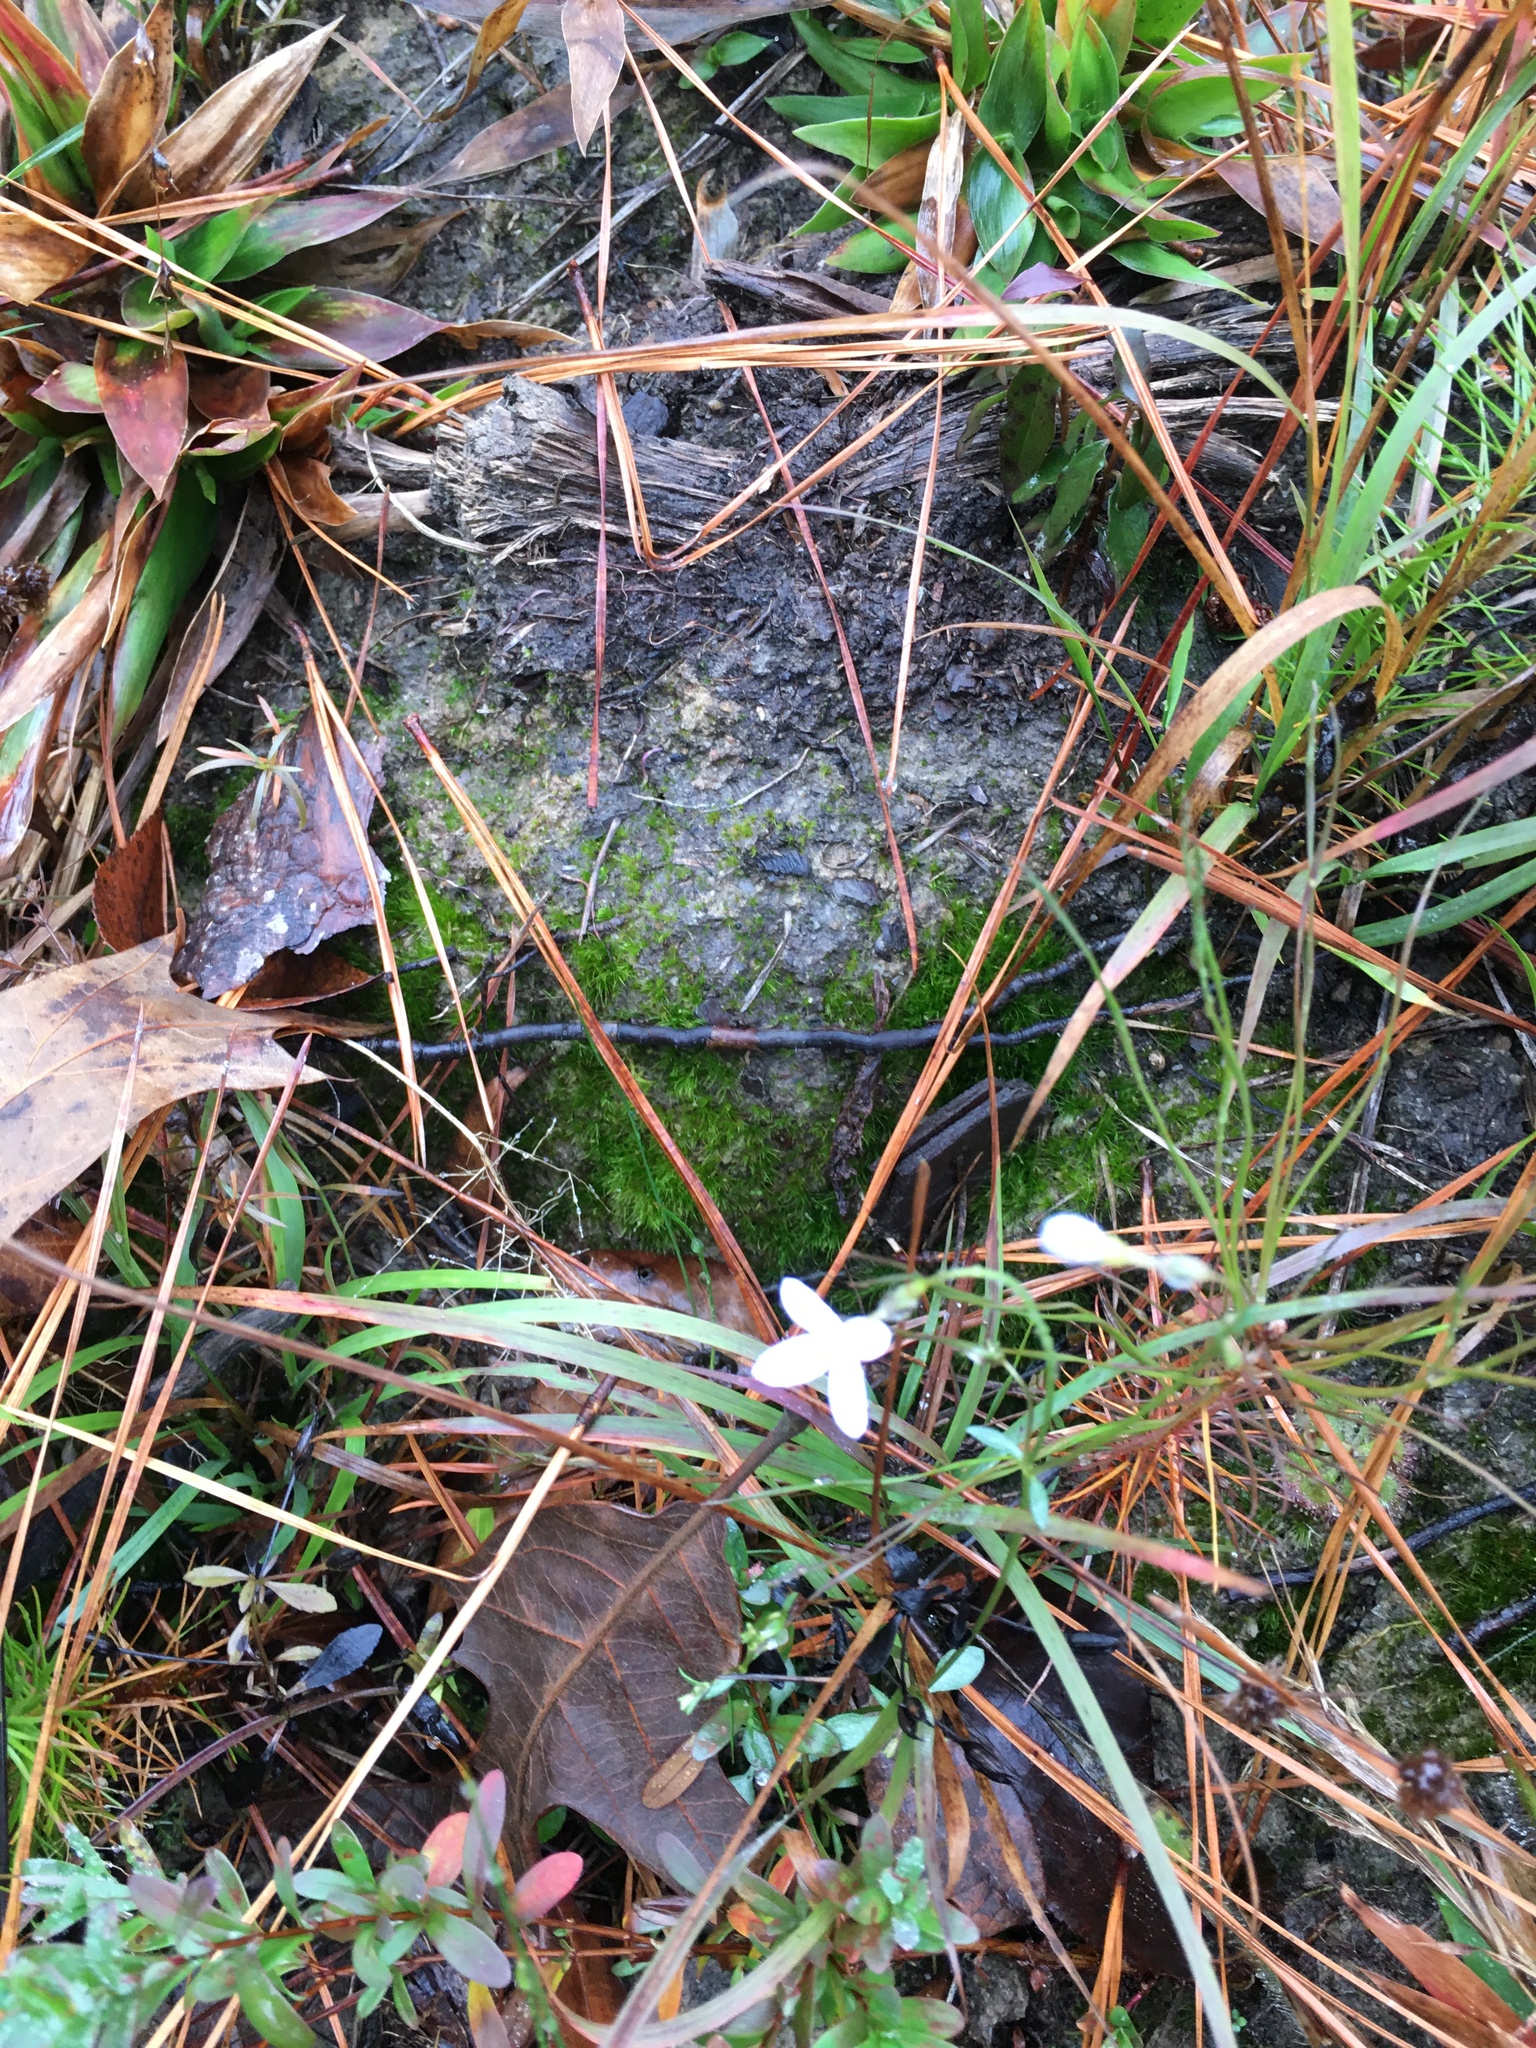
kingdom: Plantae
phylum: Tracheophyta
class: Magnoliopsida
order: Gentianales
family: Rubiaceae
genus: Houstonia
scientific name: Houstonia caerulea
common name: Bluets
